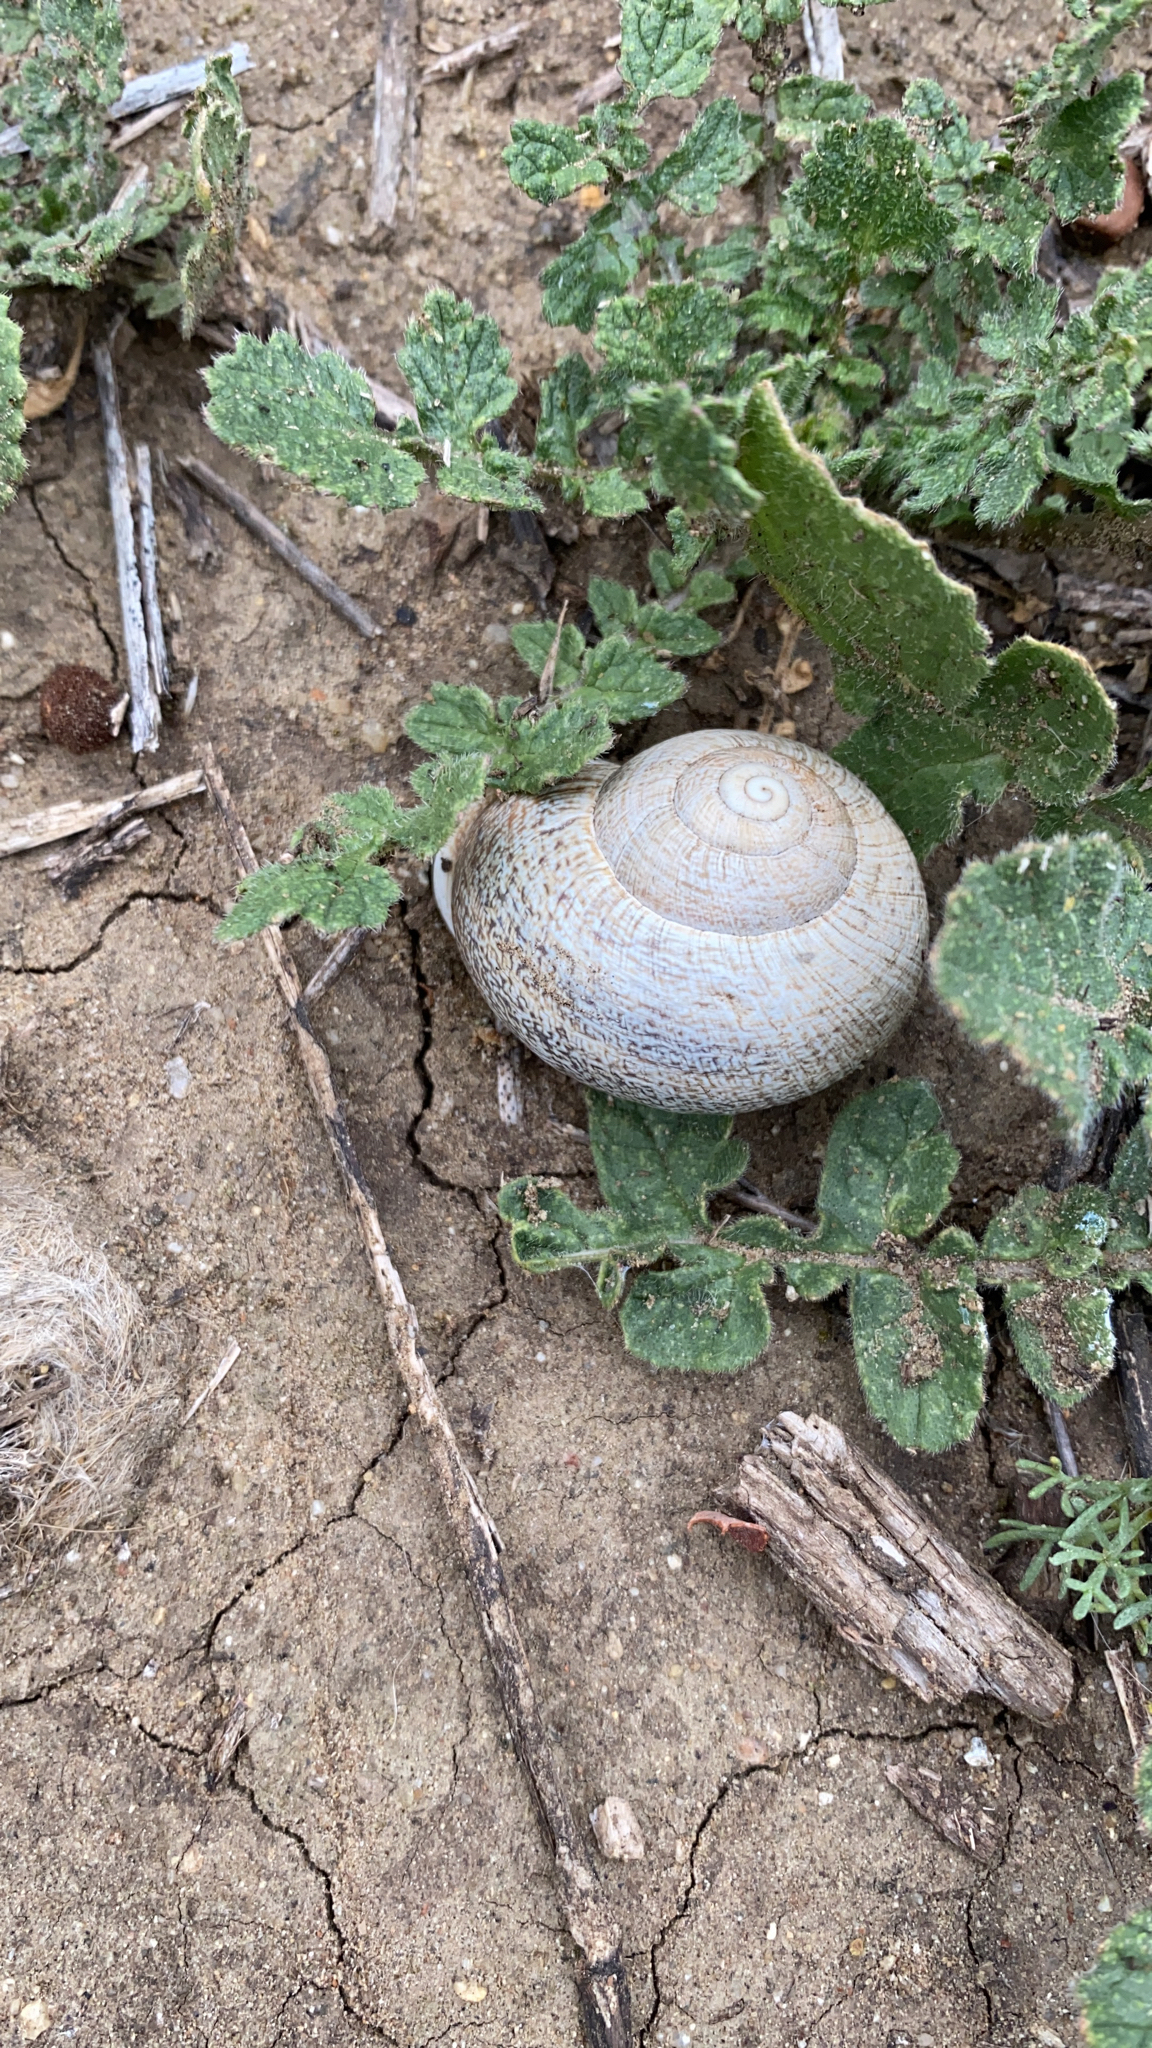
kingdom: Animalia
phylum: Mollusca
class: Gastropoda
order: Stylommatophora
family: Helicidae
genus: Otala
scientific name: Otala lactea
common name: Milk snail
